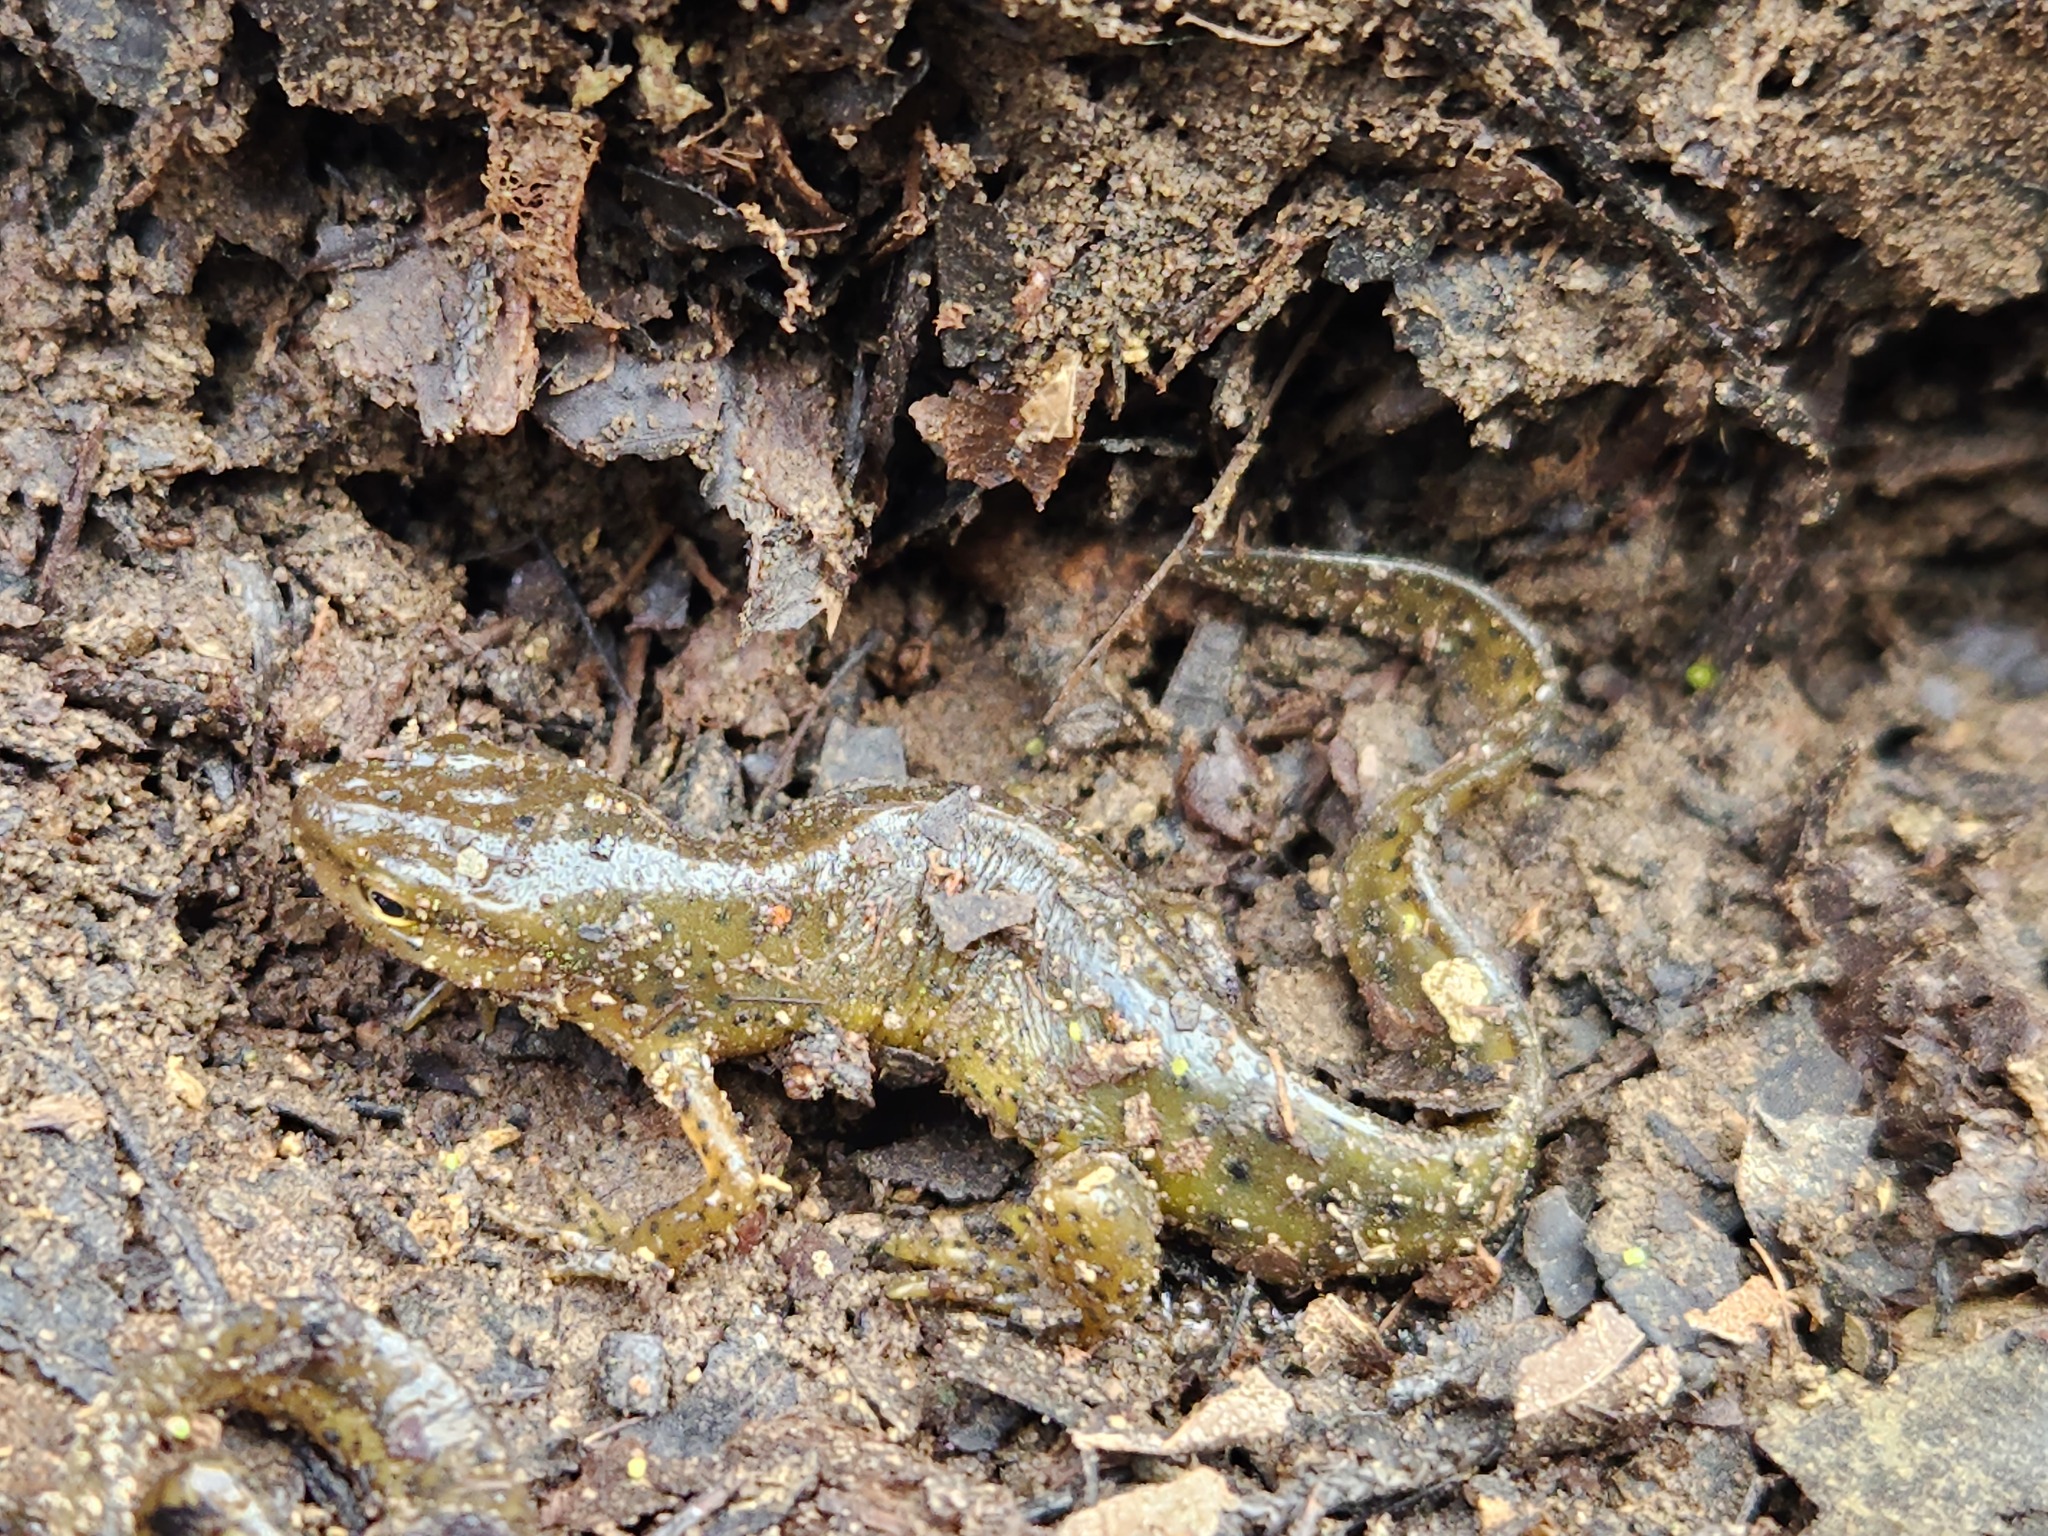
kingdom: Animalia
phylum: Chordata
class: Amphibia
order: Caudata
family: Salamandridae
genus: Notophthalmus
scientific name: Notophthalmus viridescens
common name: Eastern newt
